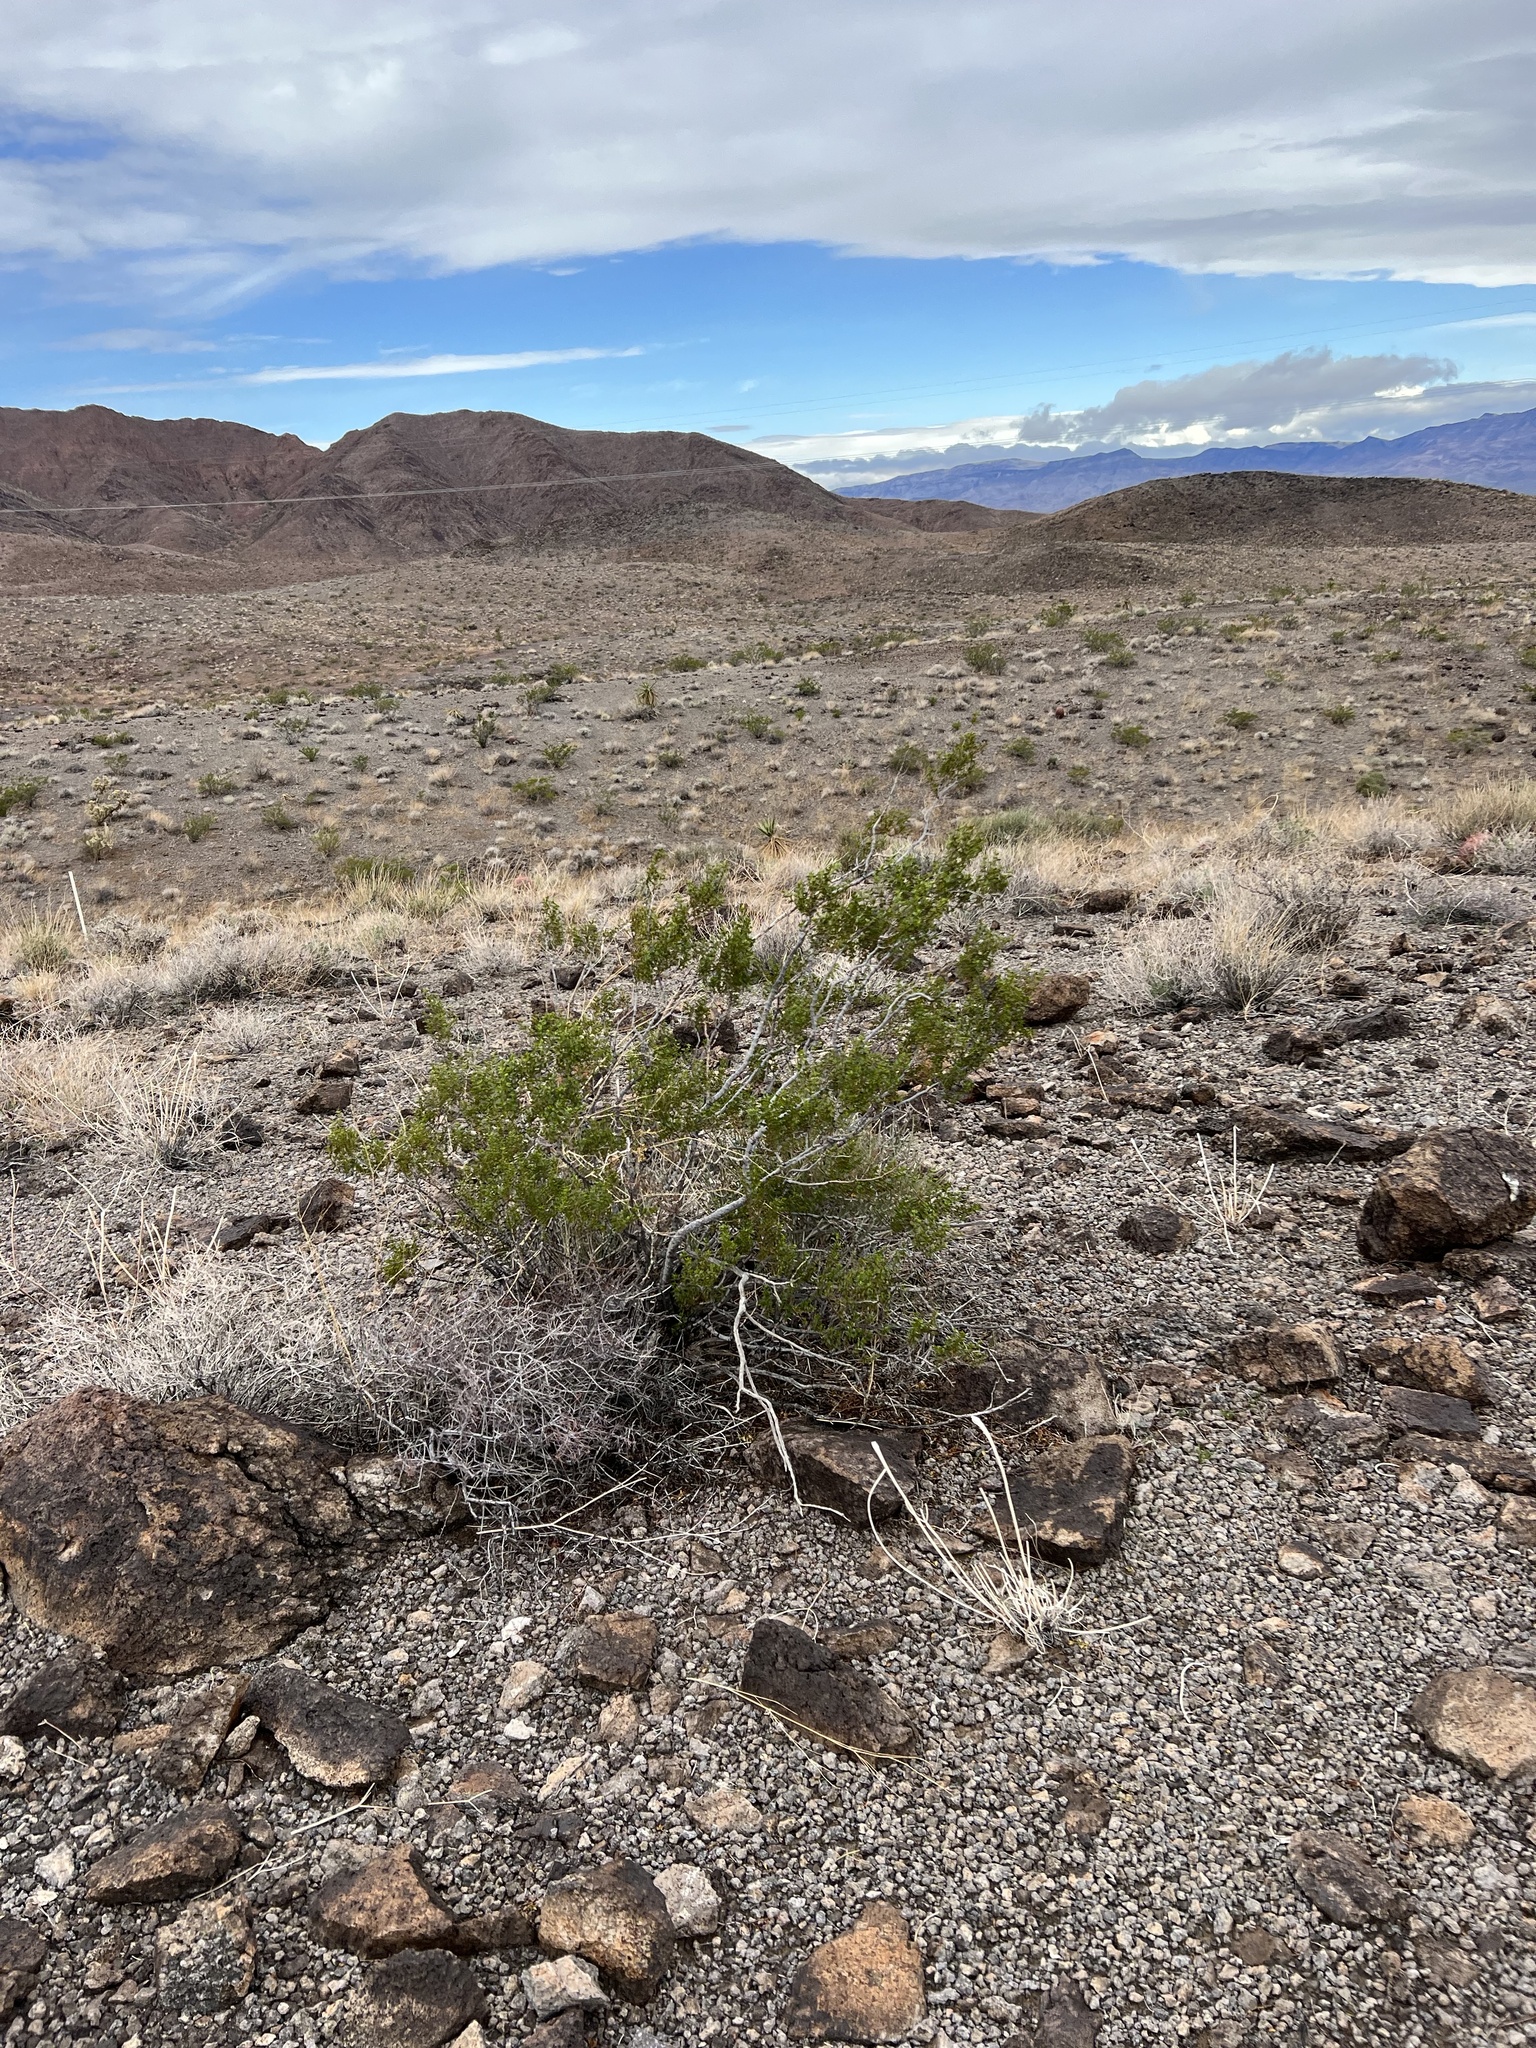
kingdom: Plantae
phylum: Tracheophyta
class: Magnoliopsida
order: Zygophyllales
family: Zygophyllaceae
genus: Larrea
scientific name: Larrea tridentata
